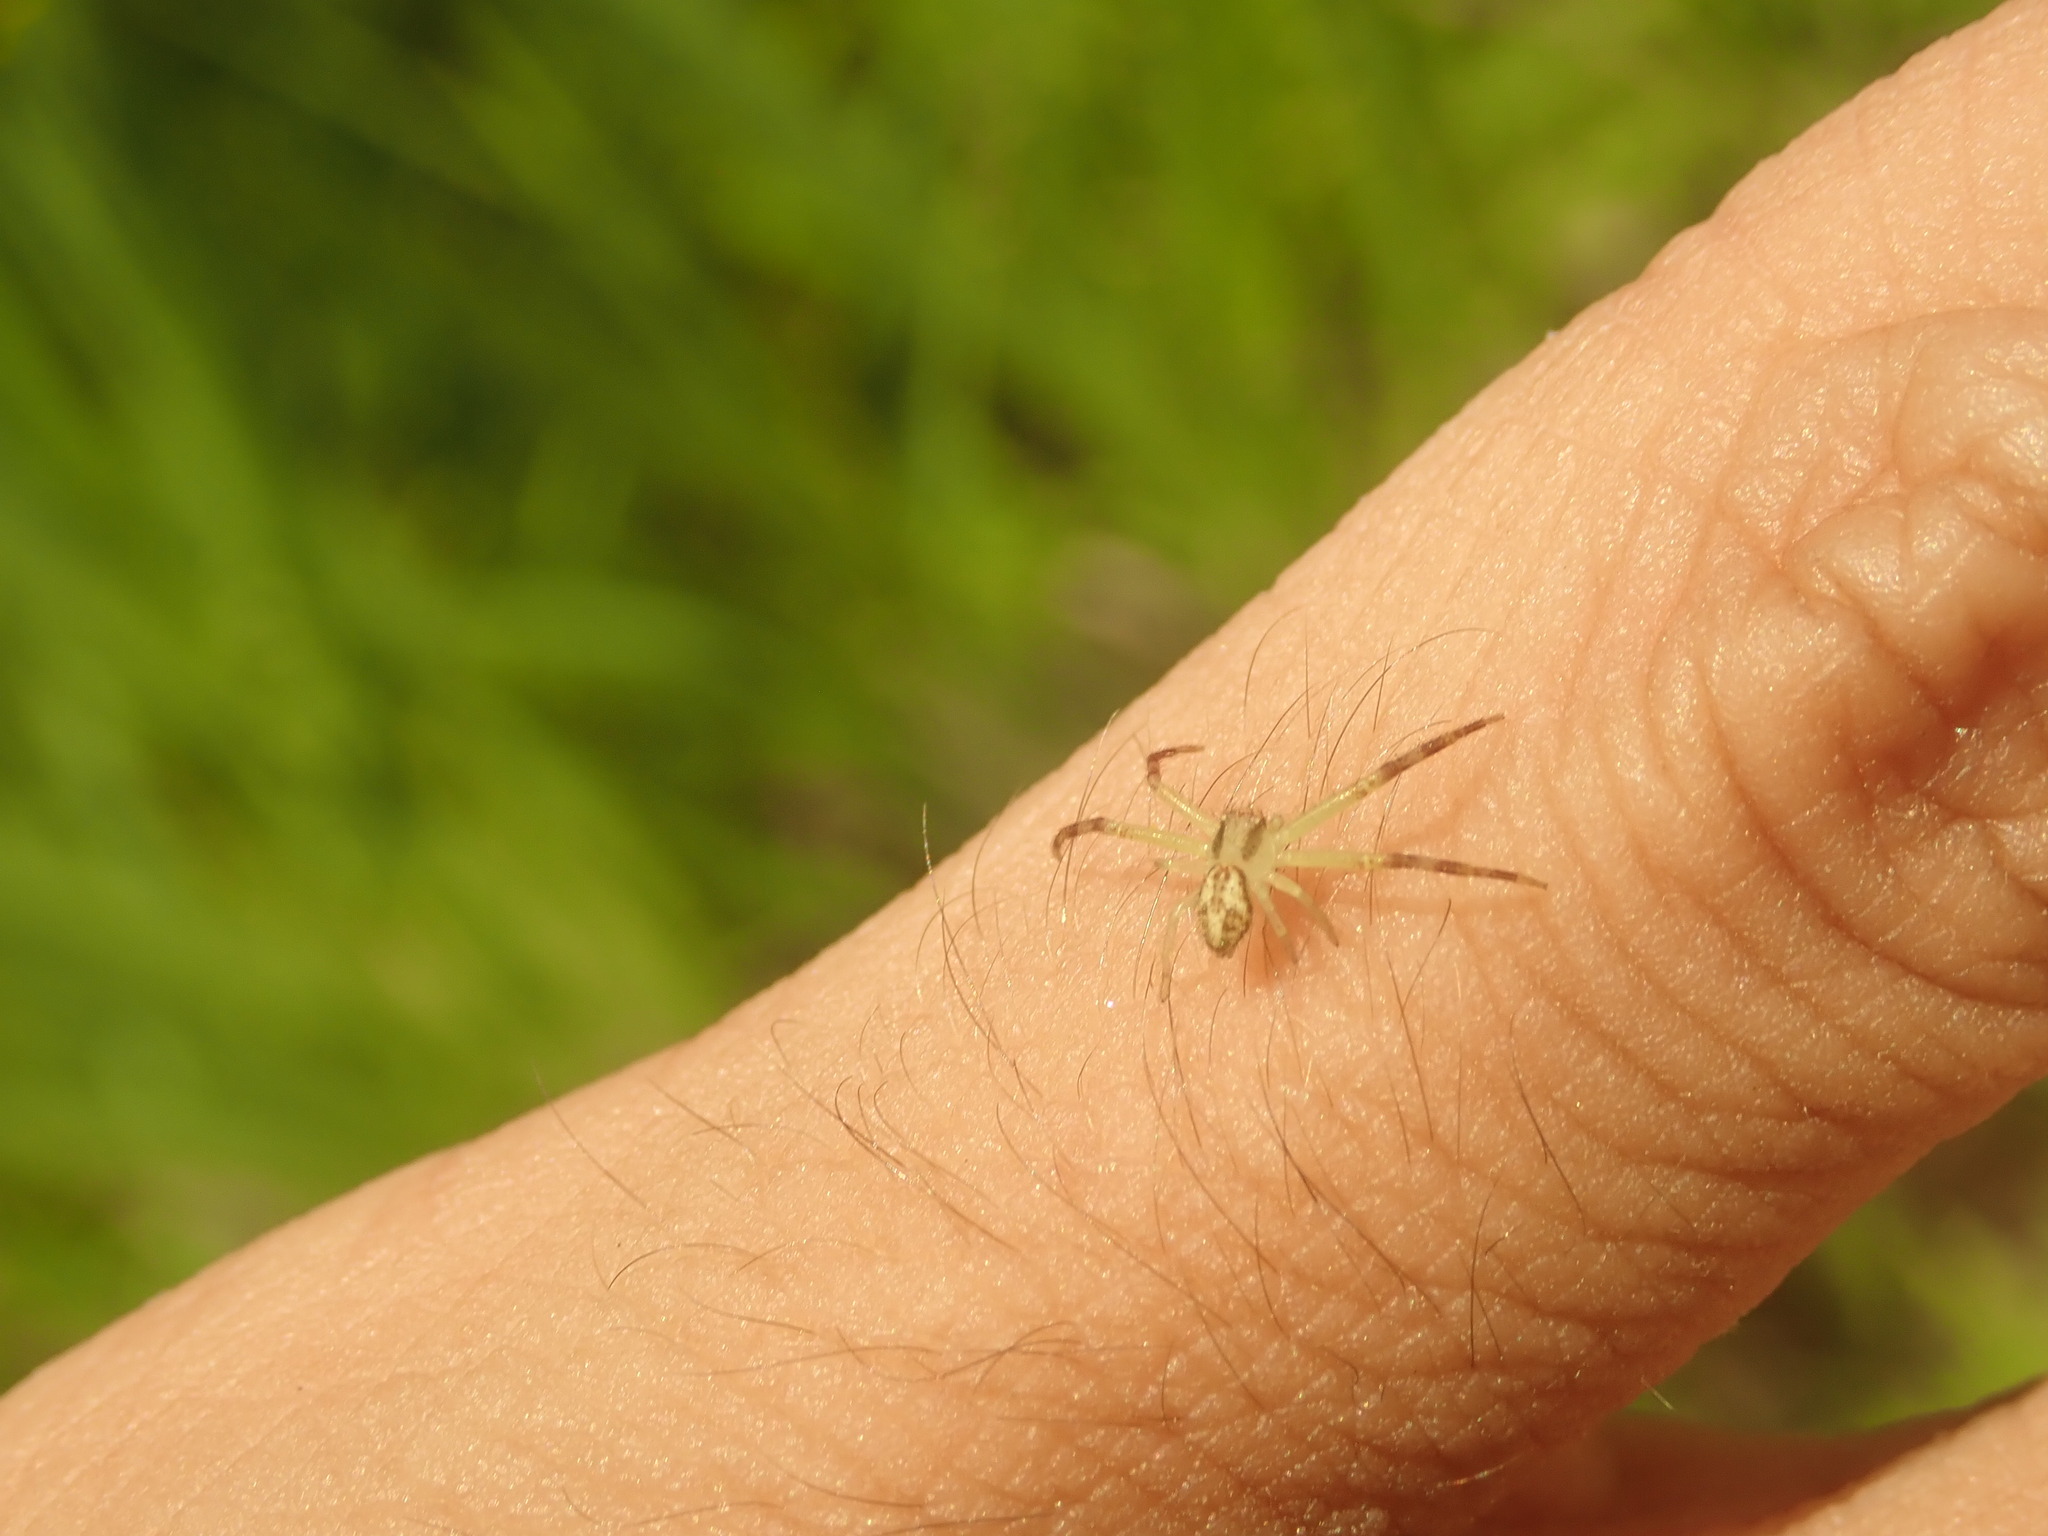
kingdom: Animalia
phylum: Arthropoda
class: Arachnida
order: Araneae
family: Thomisidae
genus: Mecaphesa
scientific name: Mecaphesa asperata
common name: Crab spiders
